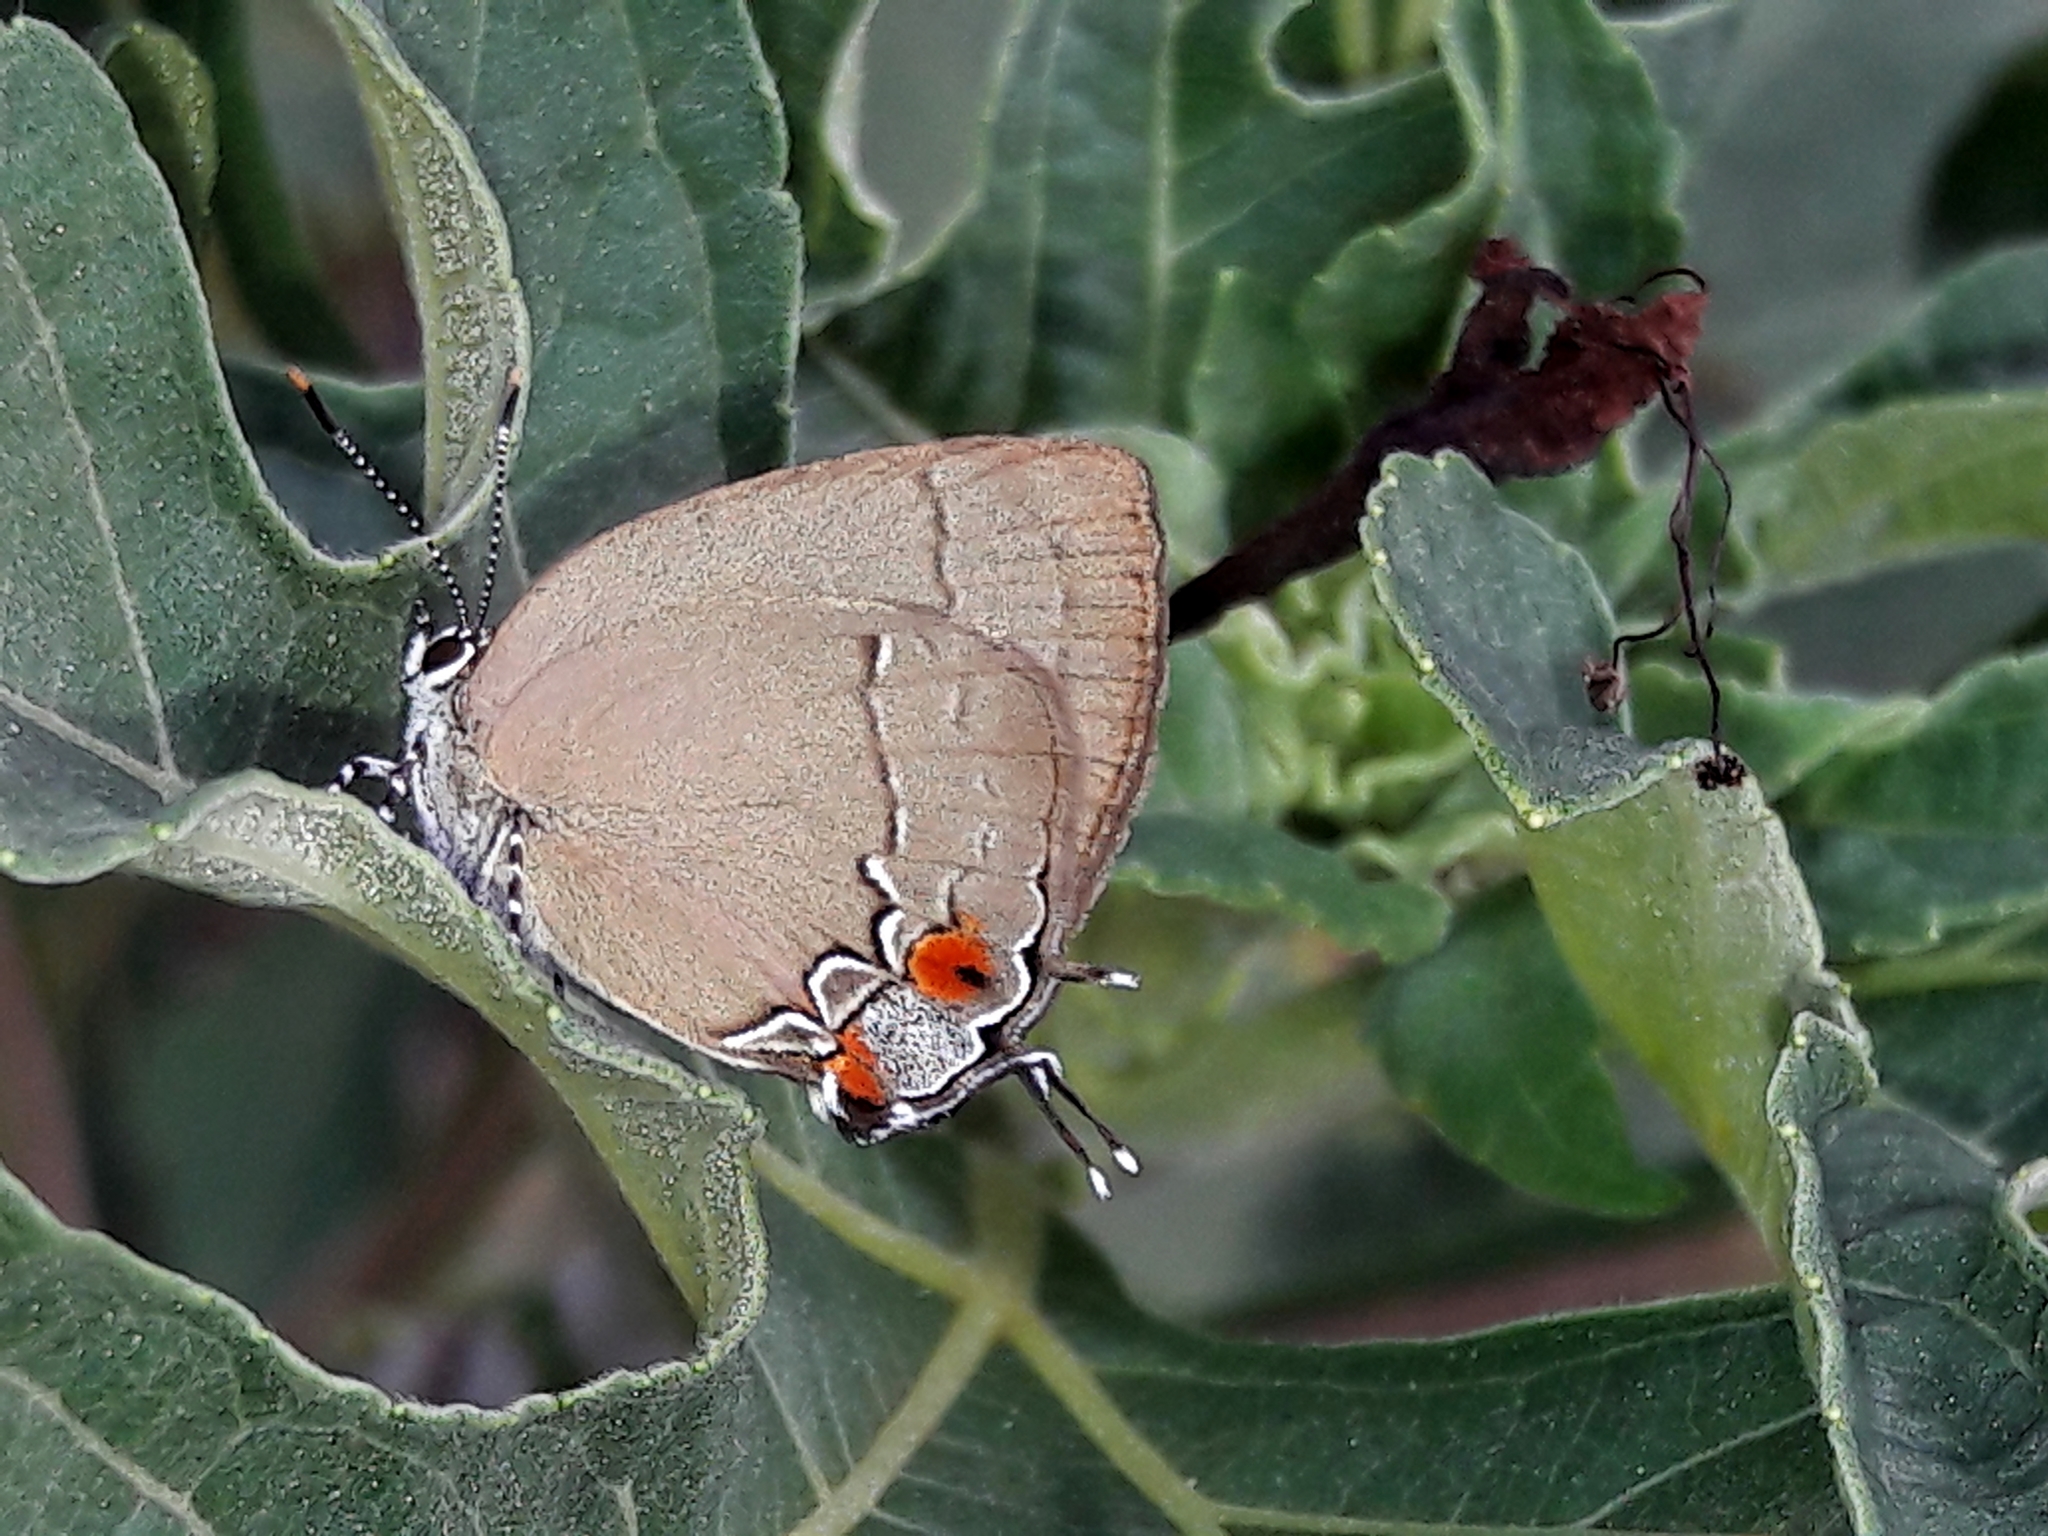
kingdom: Animalia
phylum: Arthropoda
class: Insecta
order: Lepidoptera
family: Lycaenidae
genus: Symbiopsis
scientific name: Symbiopsis strenua
